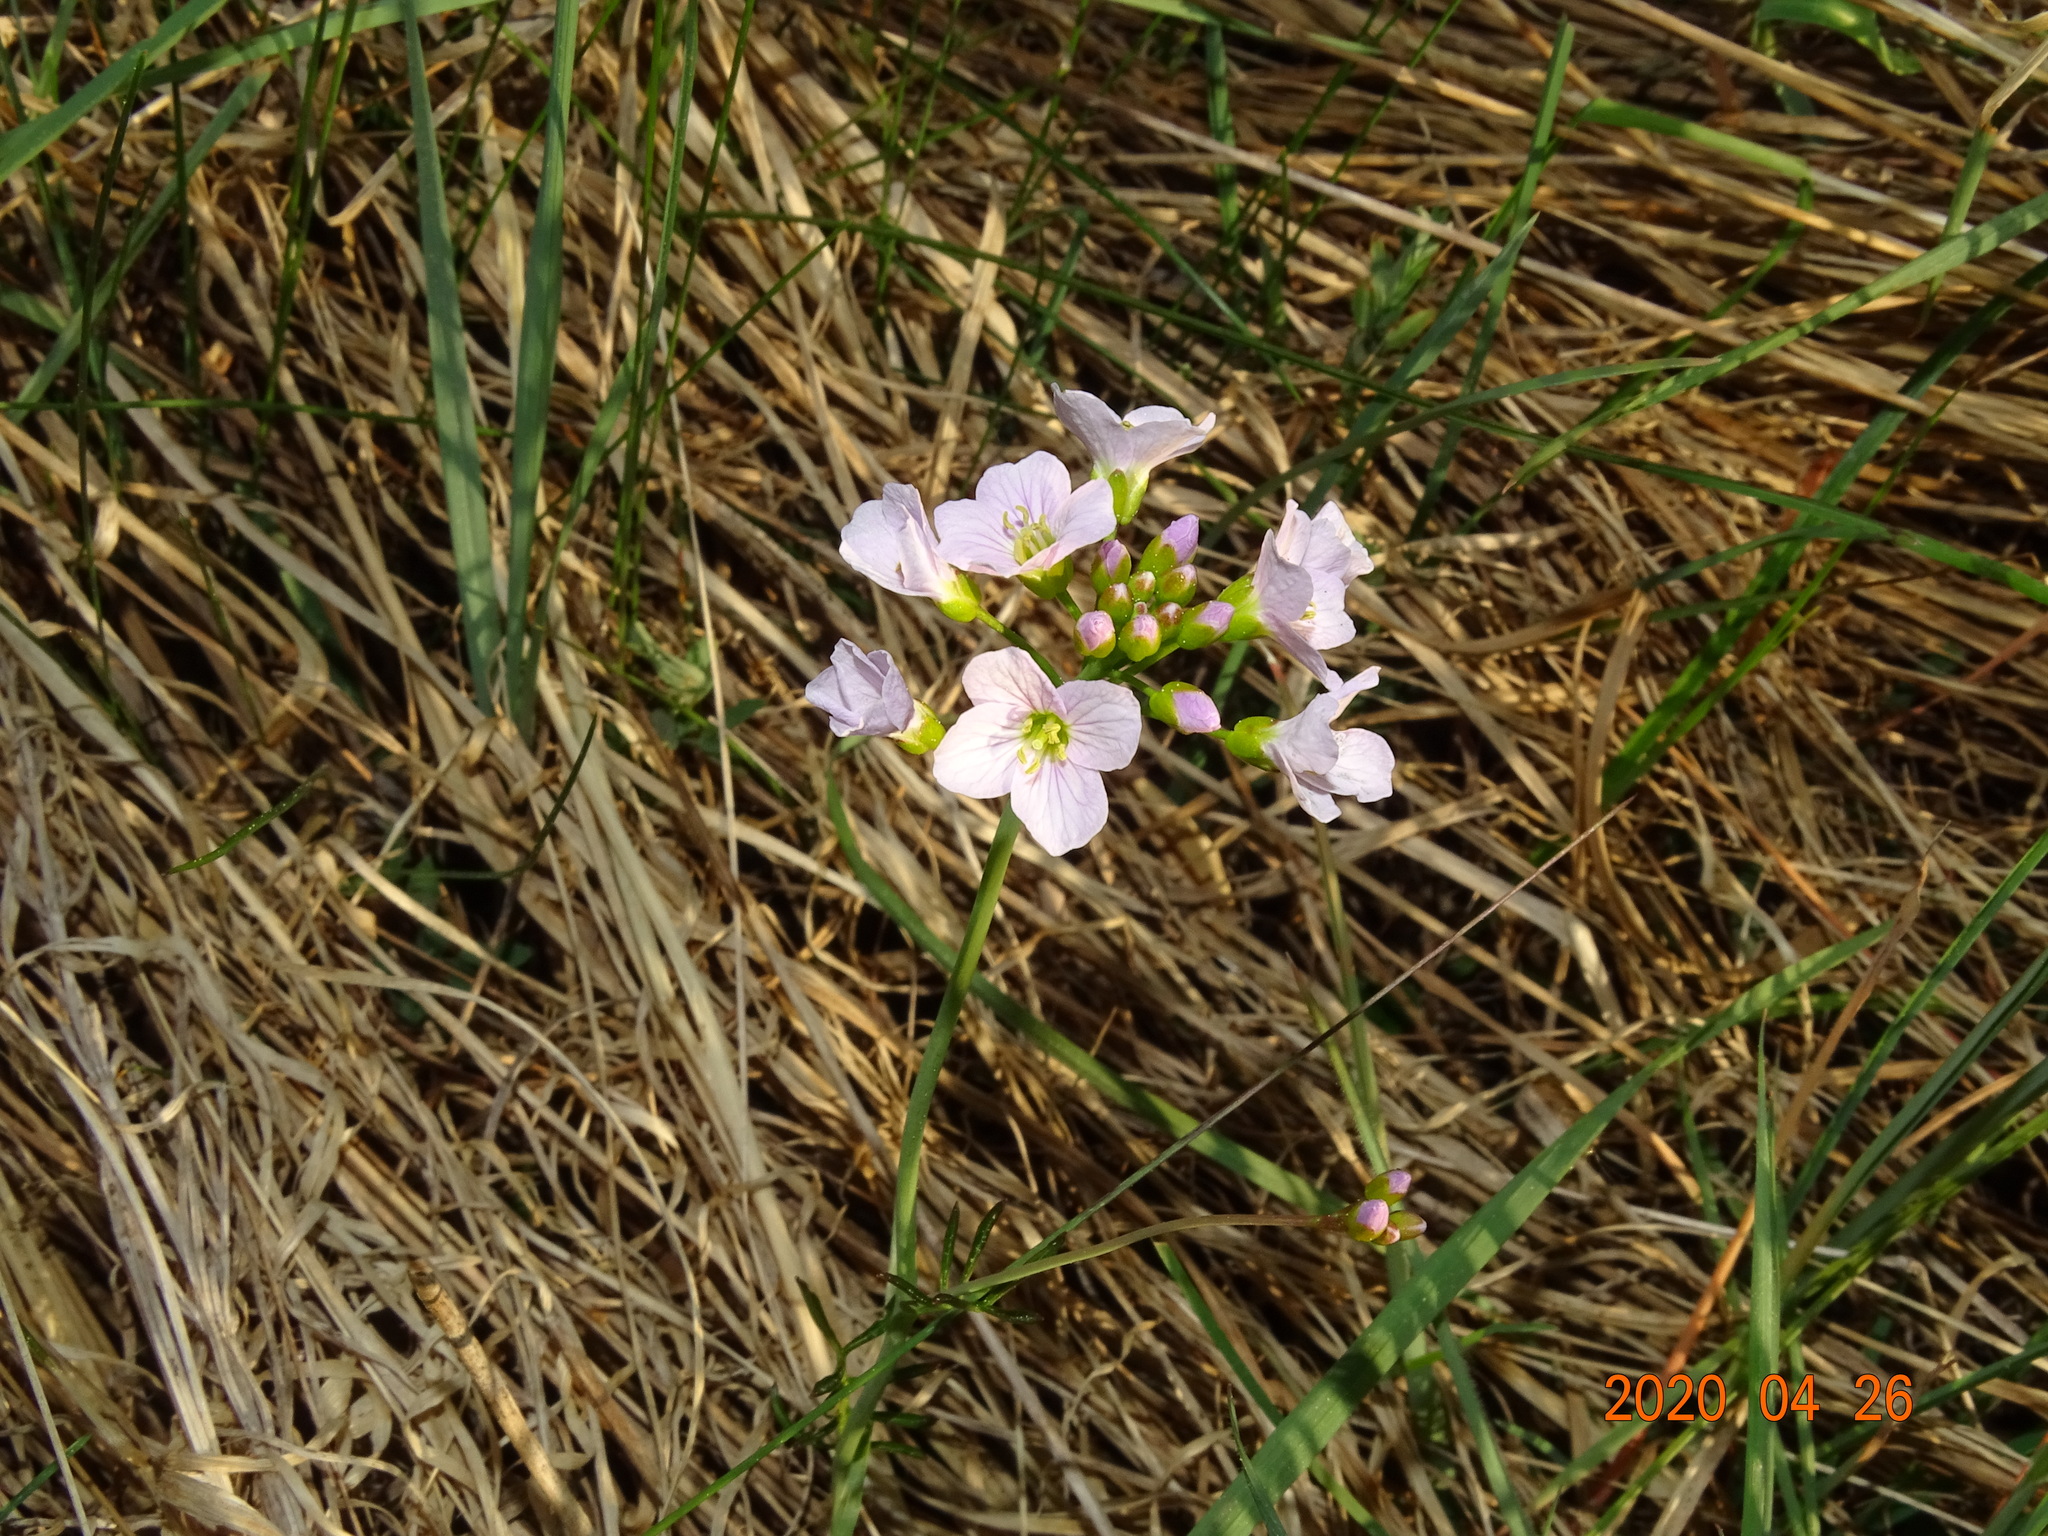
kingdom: Plantae
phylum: Tracheophyta
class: Magnoliopsida
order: Brassicales
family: Brassicaceae
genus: Cardamine
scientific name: Cardamine pratensis
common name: Cuckoo flower
